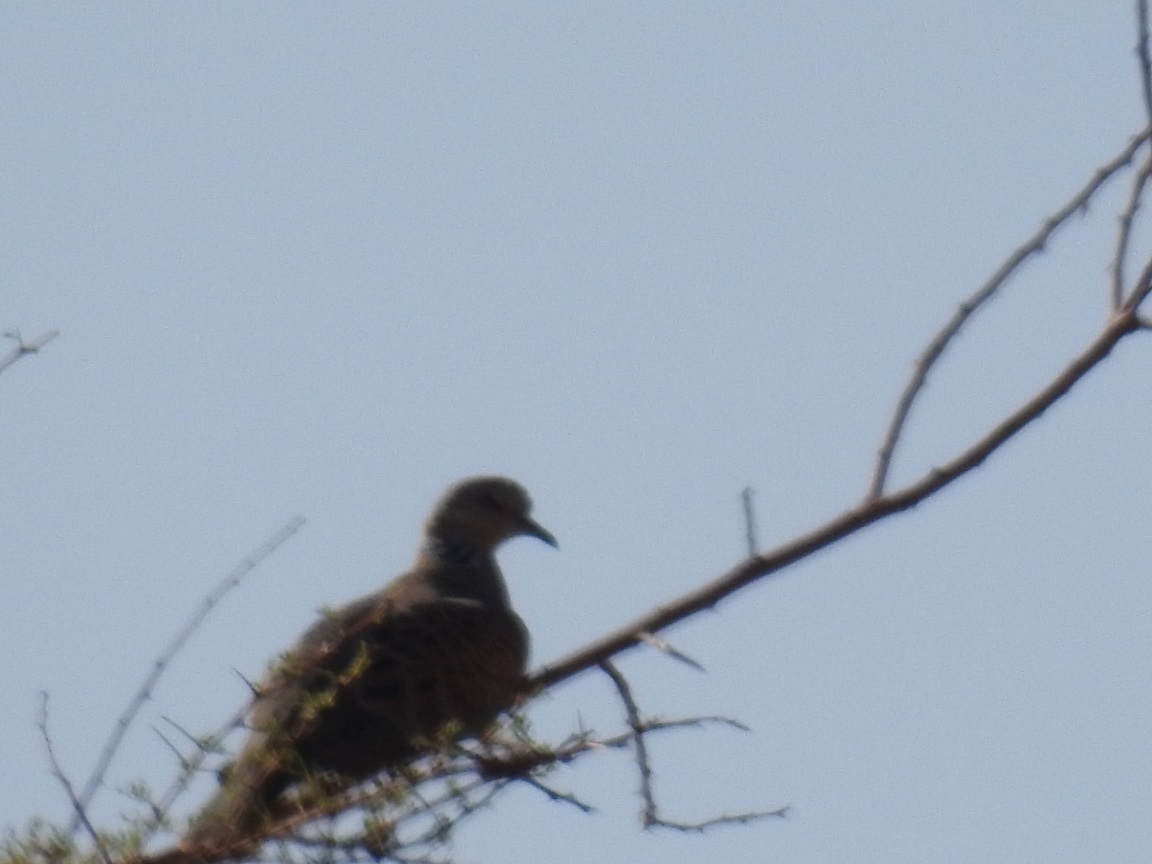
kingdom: Animalia
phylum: Chordata
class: Aves
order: Columbiformes
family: Columbidae
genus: Streptopelia
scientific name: Streptopelia turtur
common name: European turtle dove
